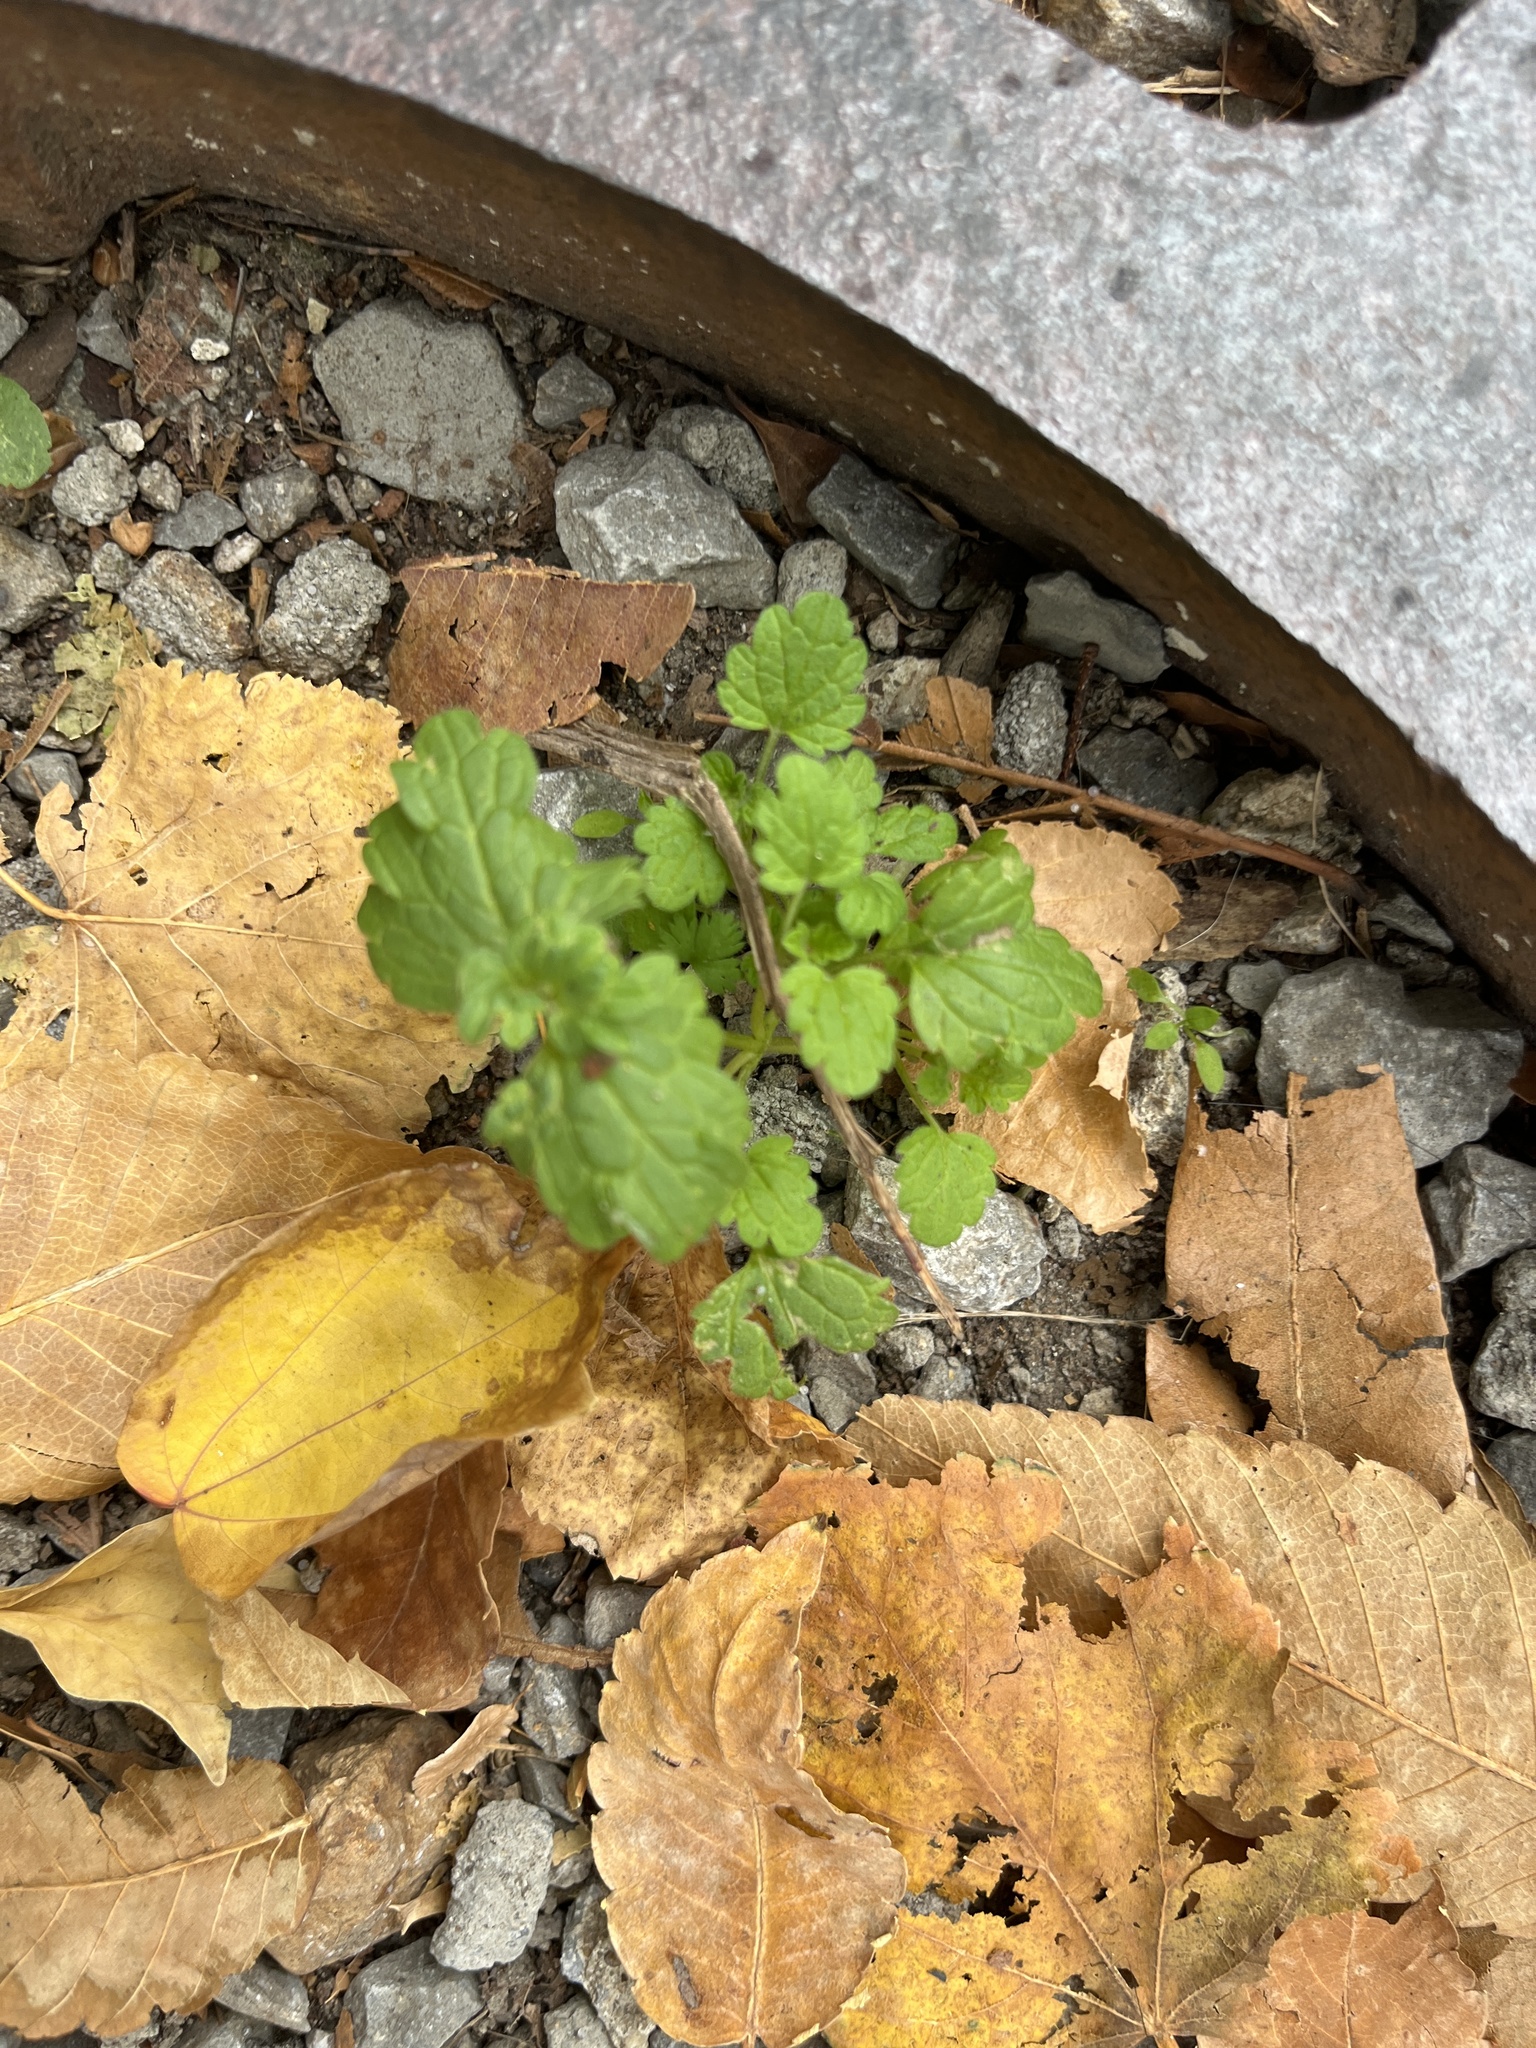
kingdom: Plantae
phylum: Tracheophyta
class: Magnoliopsida
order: Lamiales
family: Lamiaceae
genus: Lamium
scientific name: Lamium amplexicaule
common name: Henbit dead-nettle
